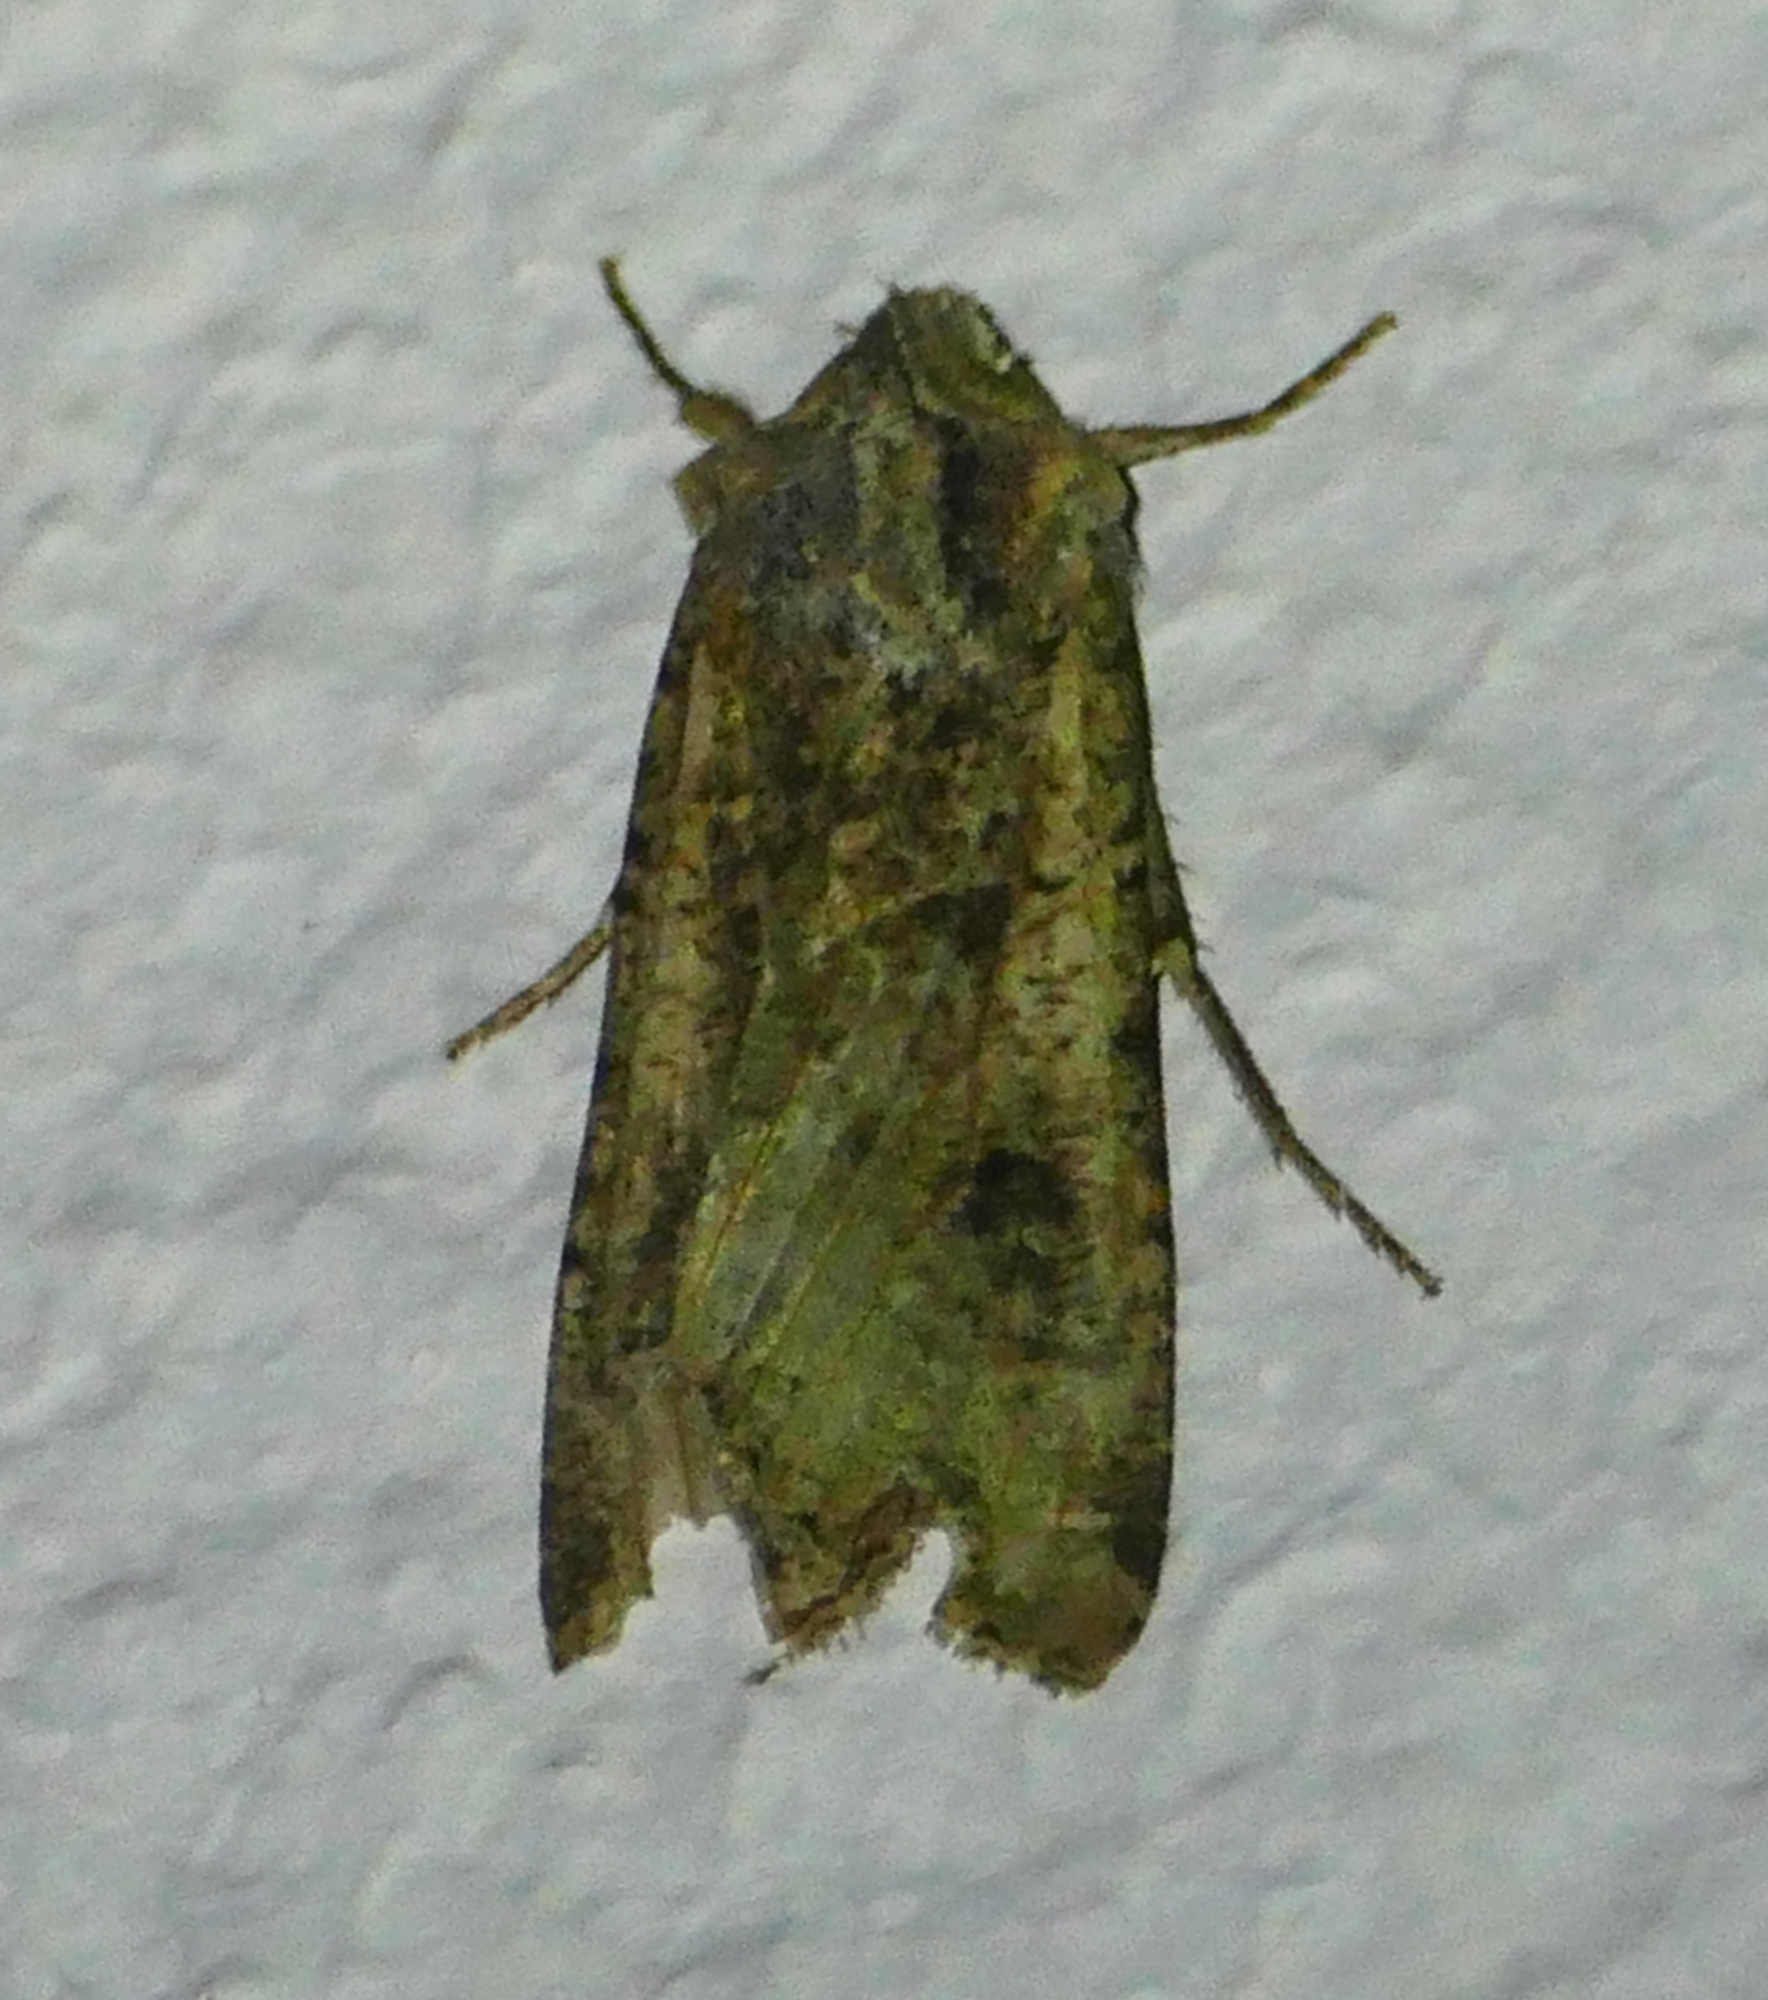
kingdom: Animalia
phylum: Arthropoda
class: Insecta
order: Lepidoptera
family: Noctuidae
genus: Peridroma
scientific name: Peridroma saucia
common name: Pearly underwing
